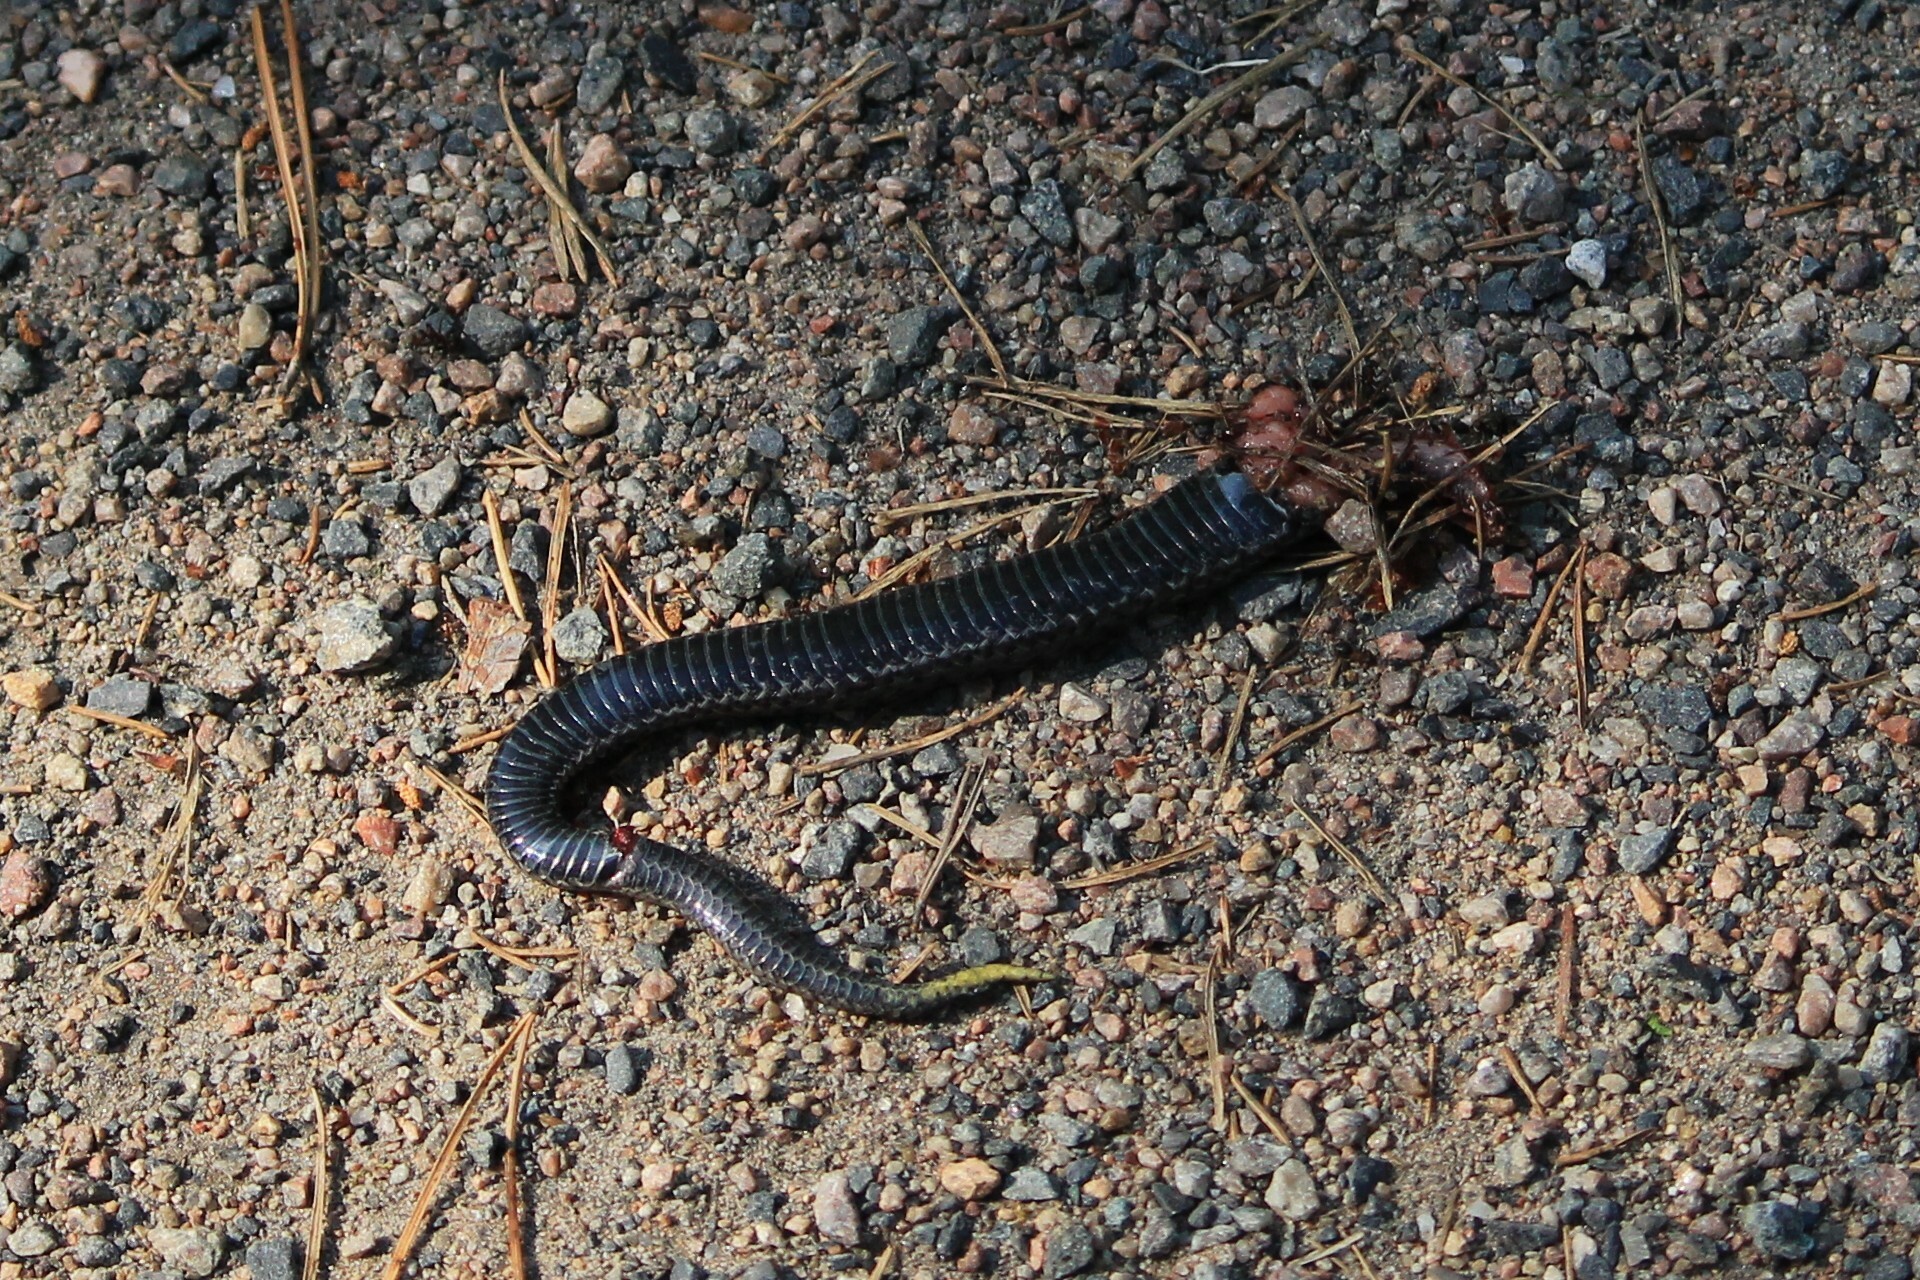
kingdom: Animalia
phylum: Chordata
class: Squamata
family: Viperidae
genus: Vipera
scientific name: Vipera berus
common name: Adder
